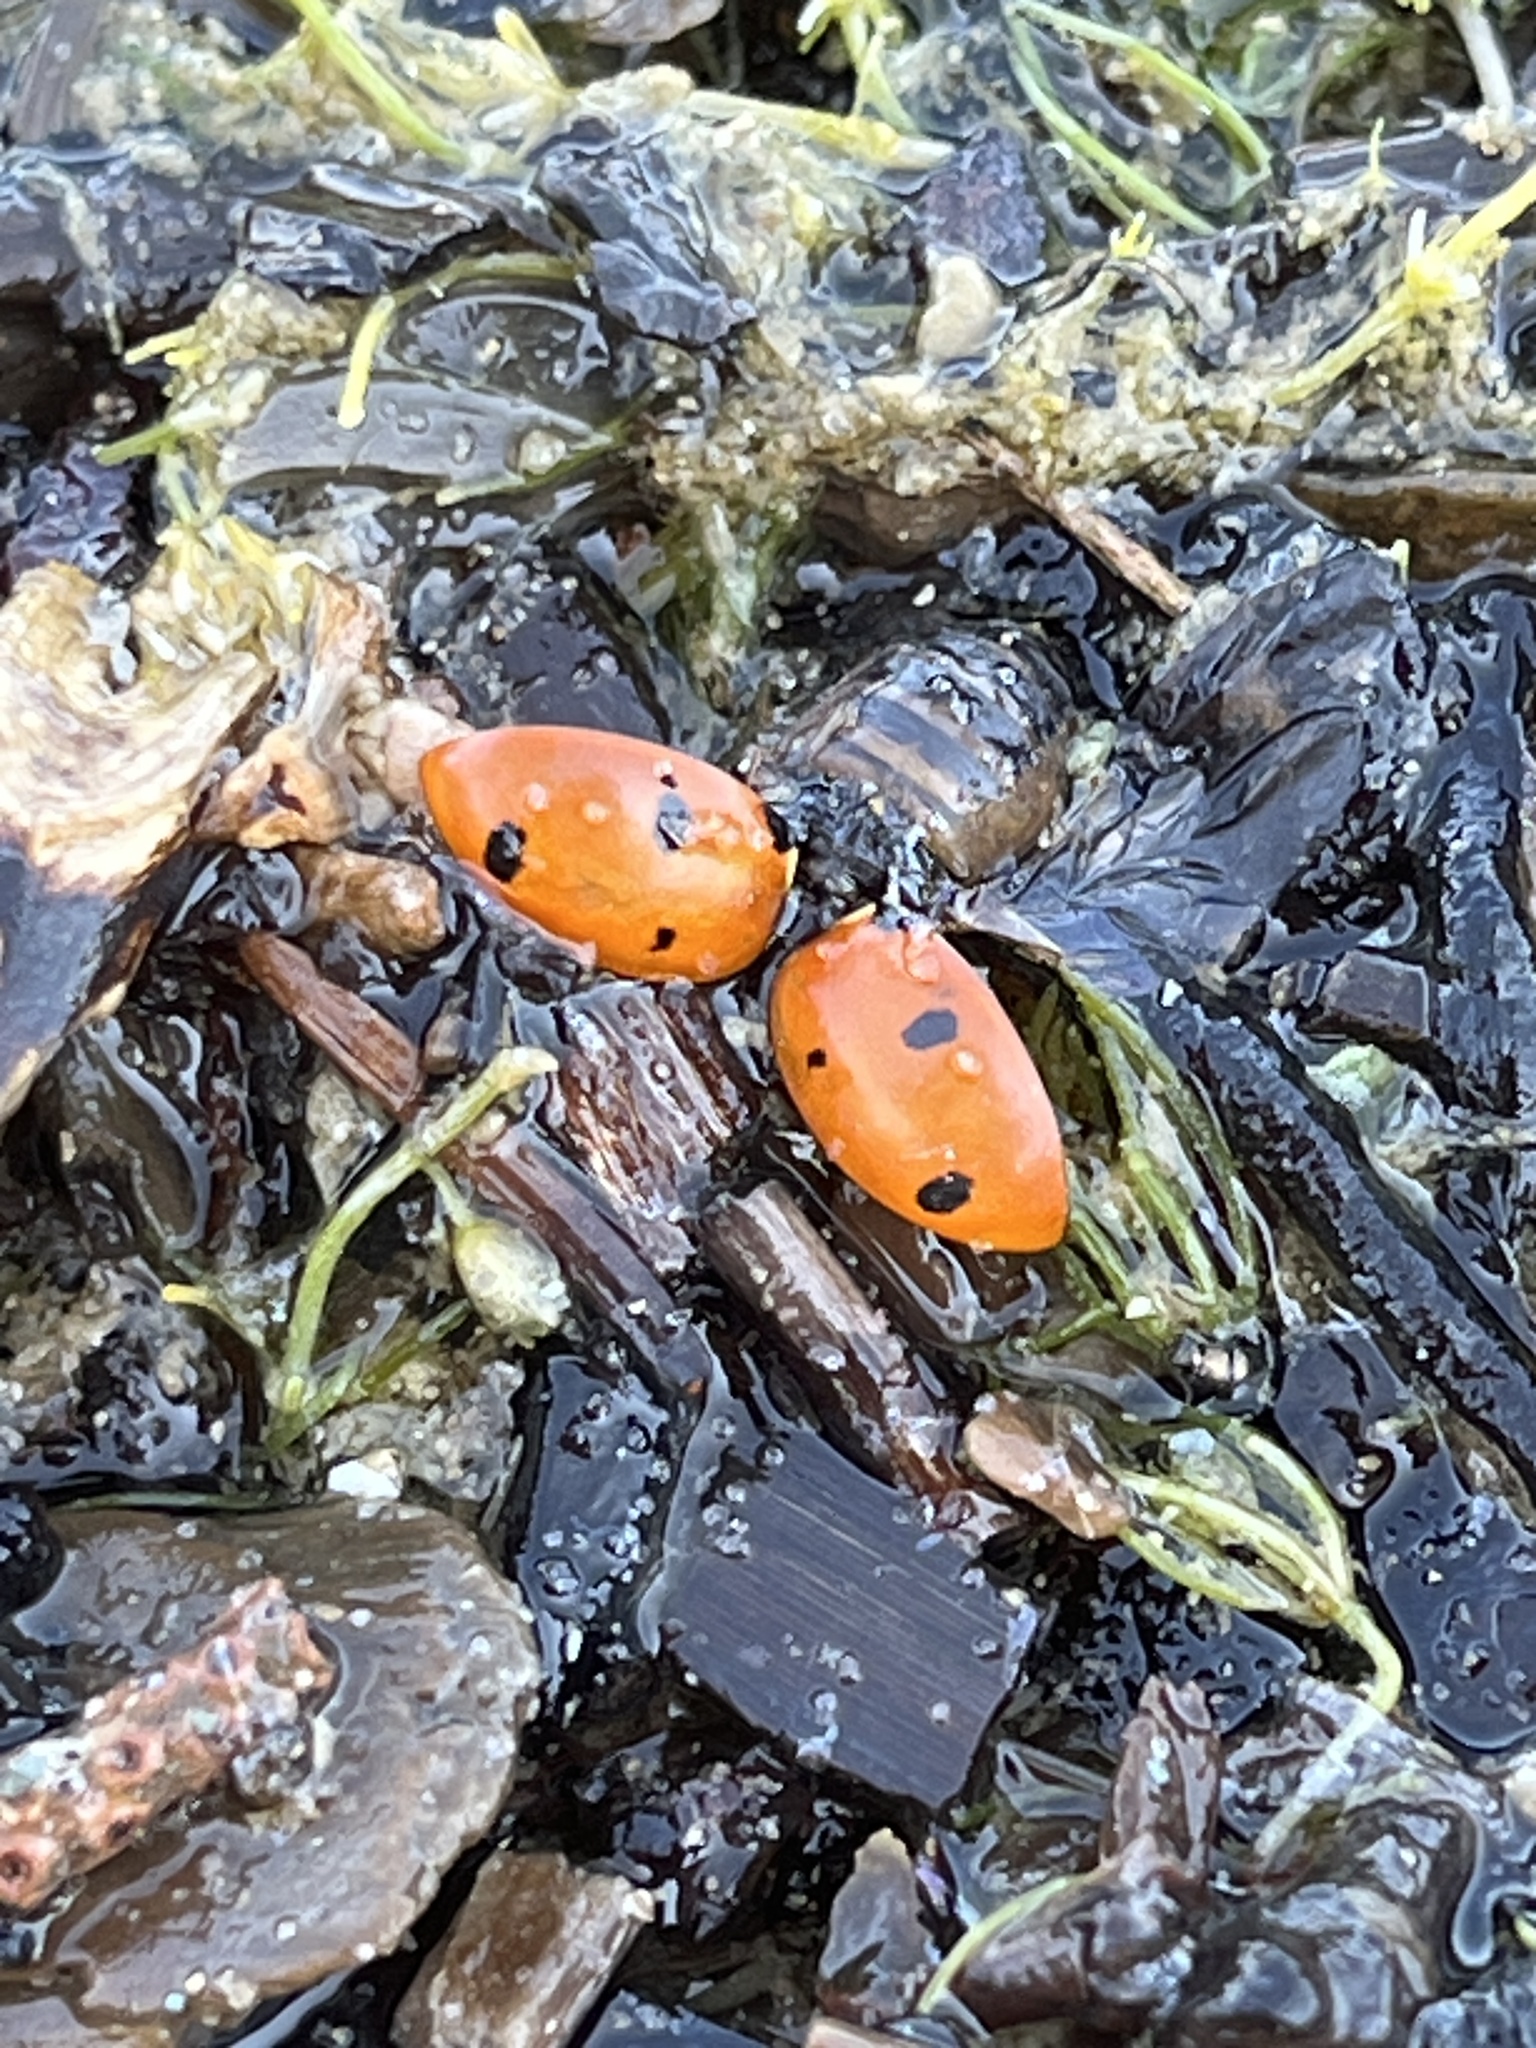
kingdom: Animalia
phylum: Arthropoda
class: Insecta
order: Coleoptera
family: Coccinellidae
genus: Coccinella
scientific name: Coccinella septempunctata
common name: Sevenspotted lady beetle
